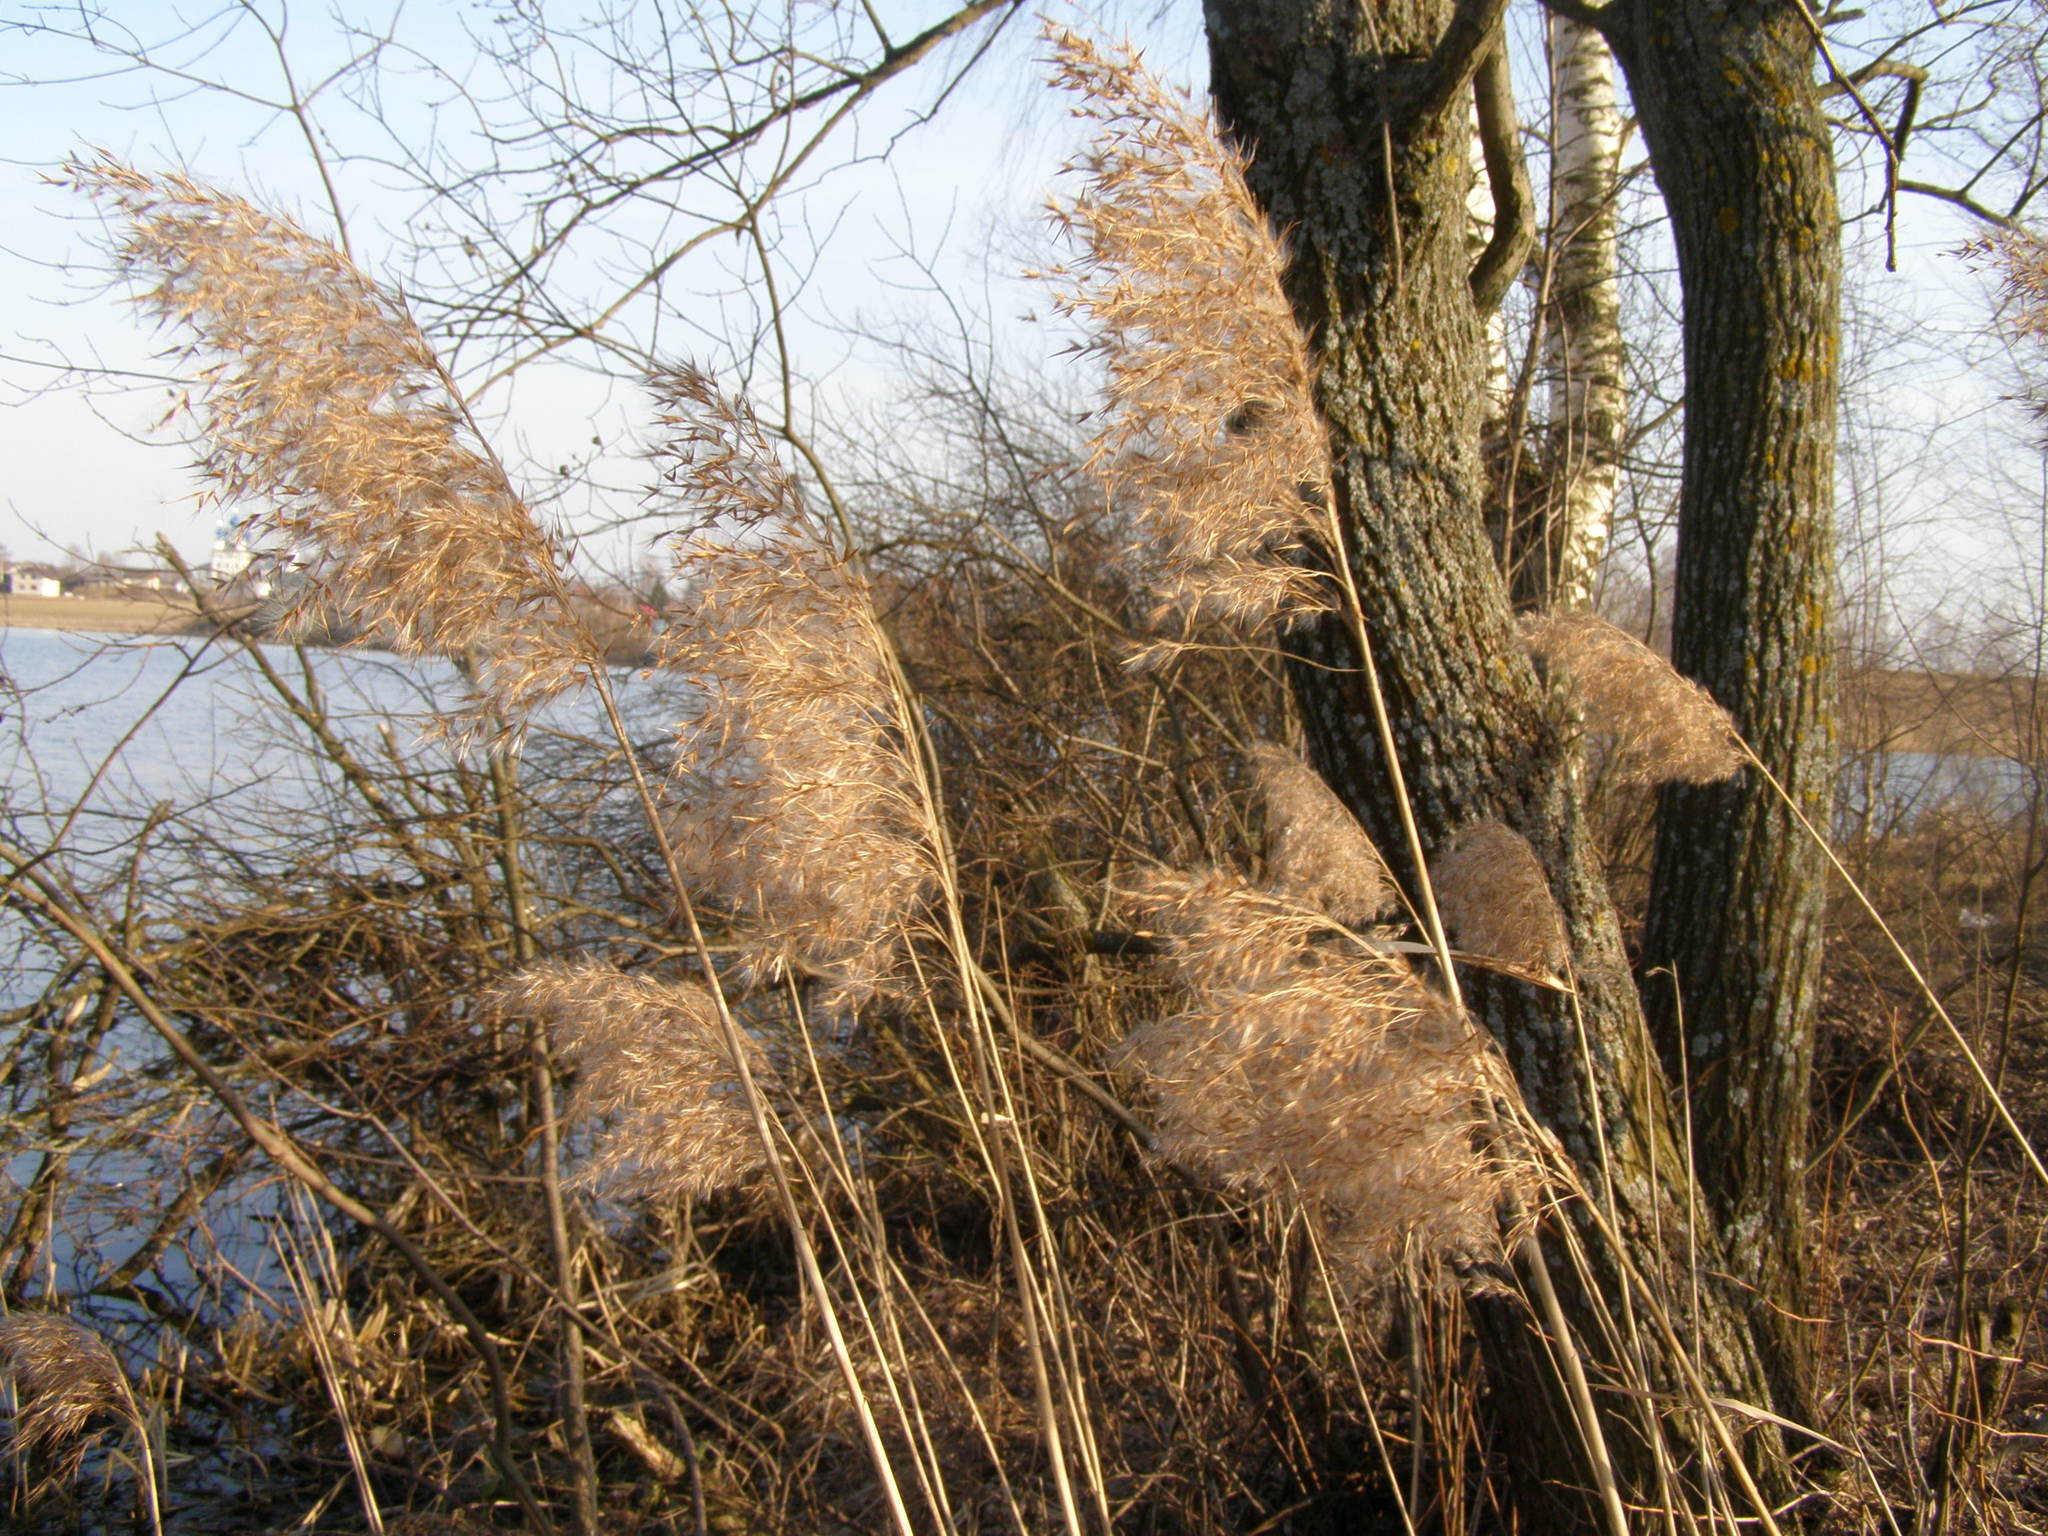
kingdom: Plantae
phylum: Tracheophyta
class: Liliopsida
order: Poales
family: Poaceae
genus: Phragmites
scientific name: Phragmites australis
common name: Common reed
